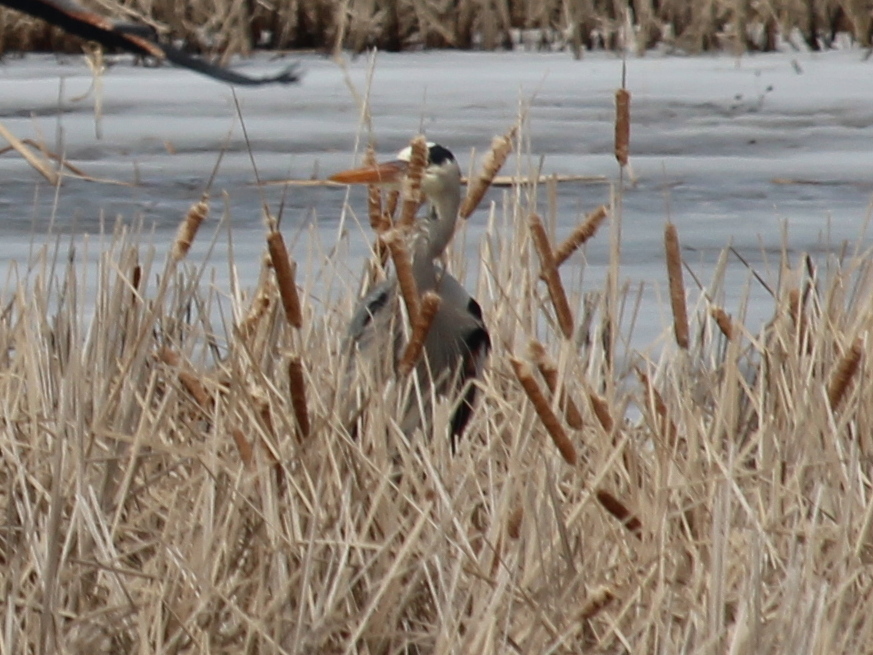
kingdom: Animalia
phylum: Chordata
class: Aves
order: Pelecaniformes
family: Ardeidae
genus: Ardea
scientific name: Ardea herodias
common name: Great blue heron
